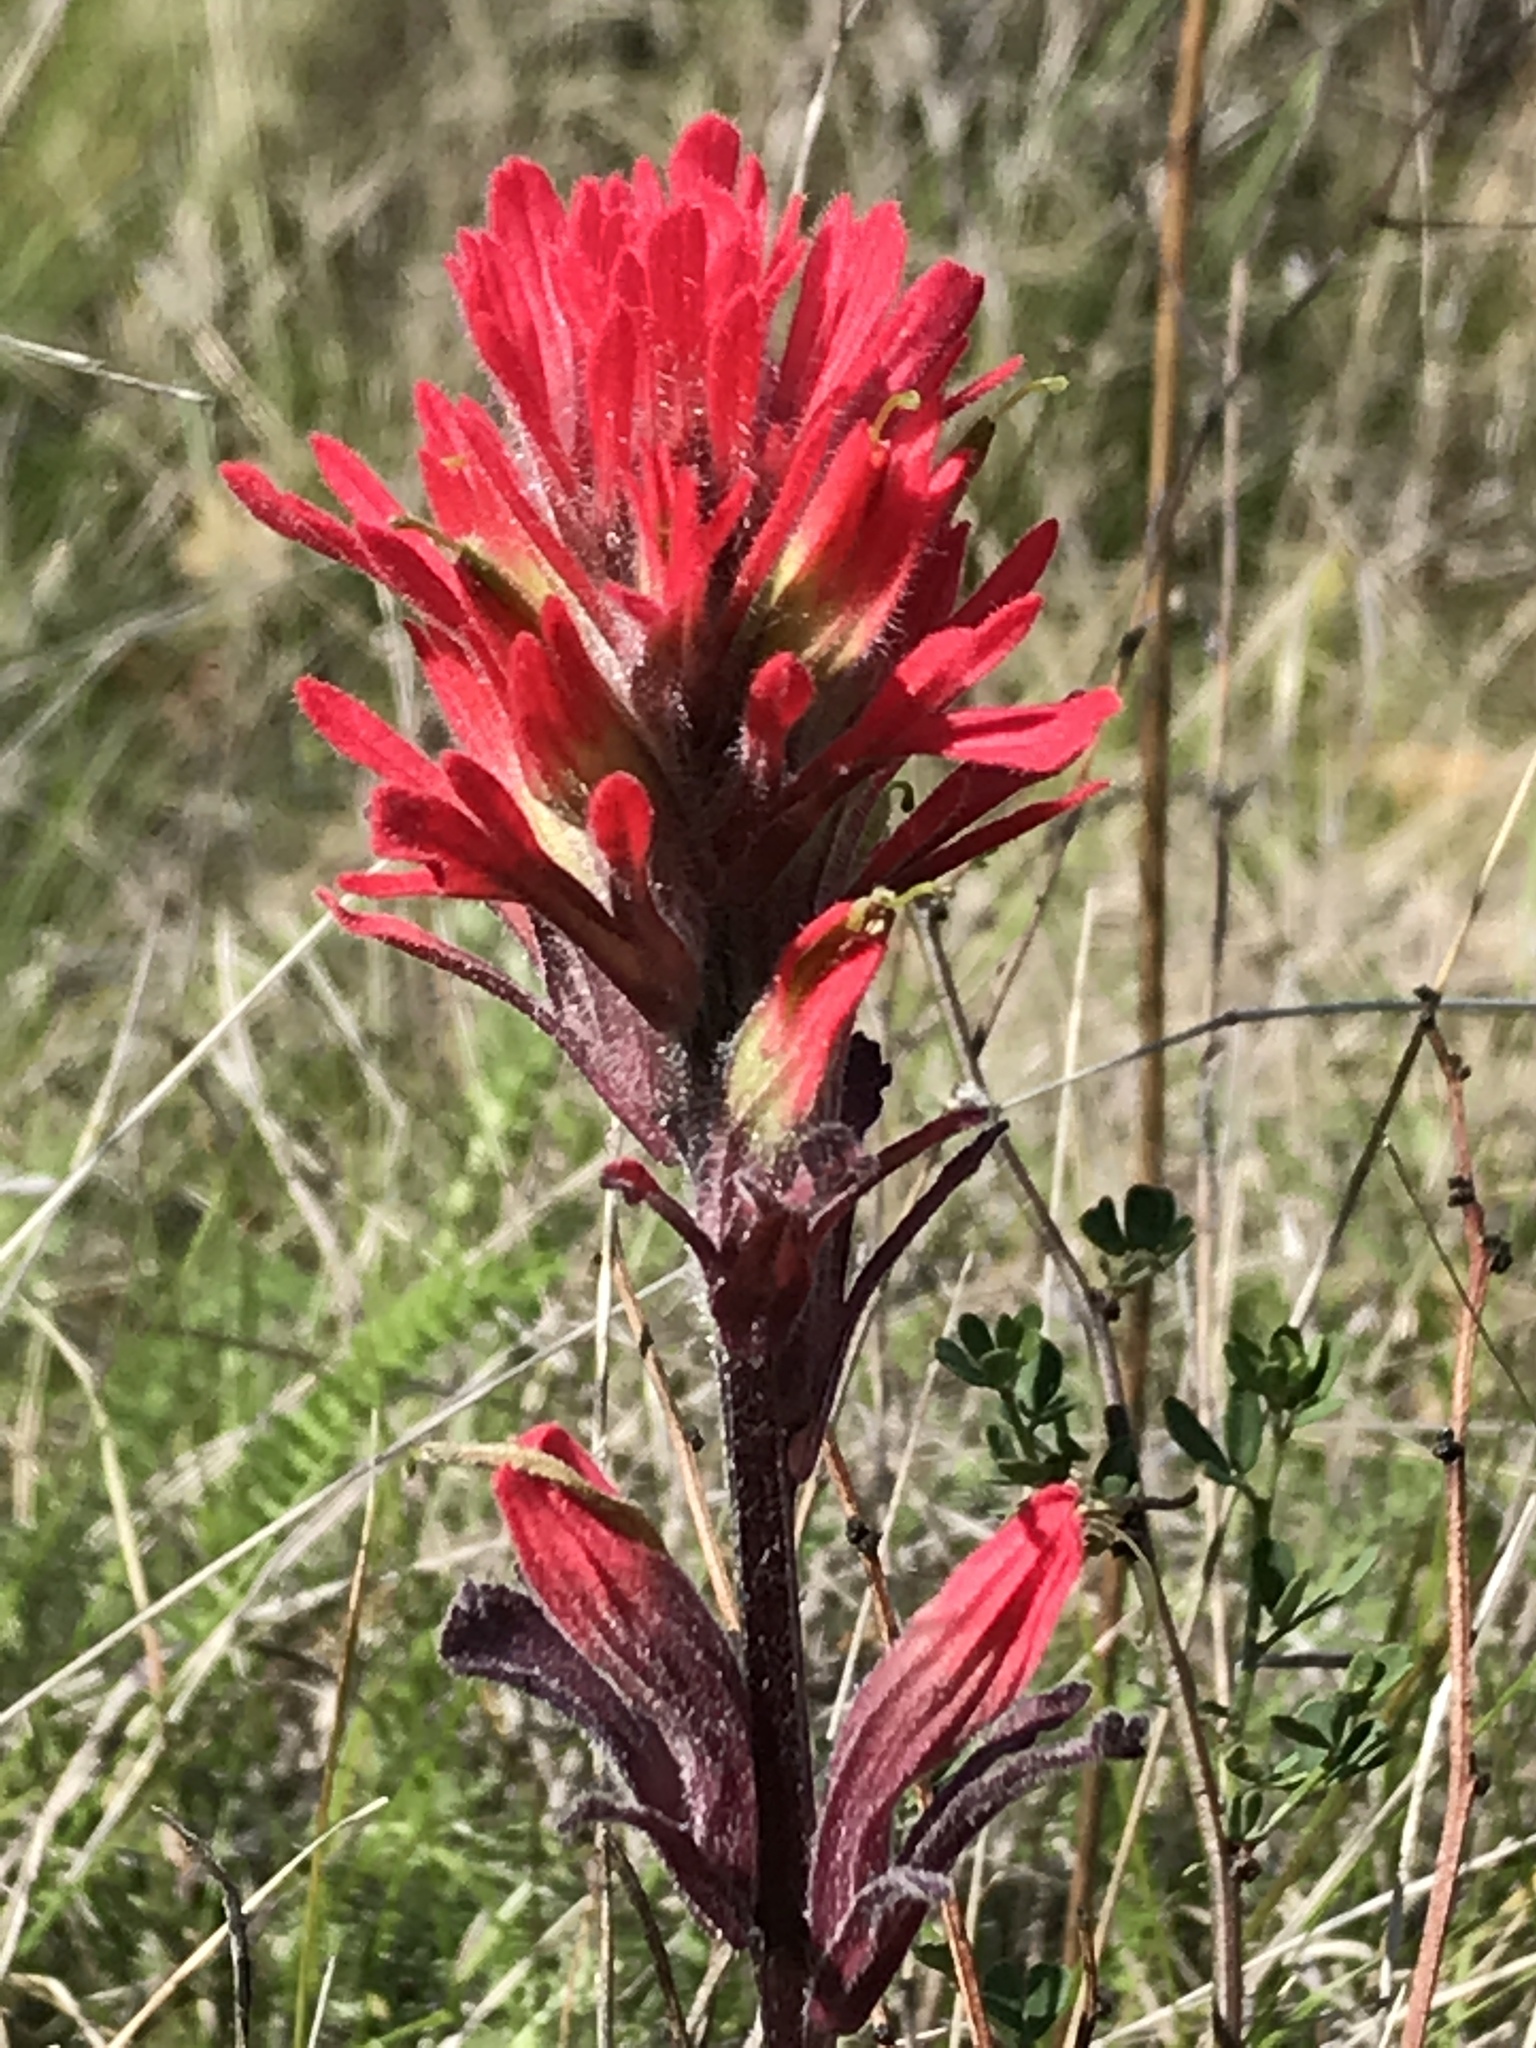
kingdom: Plantae
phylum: Tracheophyta
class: Magnoliopsida
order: Lamiales
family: Orobanchaceae
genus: Castilleja
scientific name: Castilleja affinis
